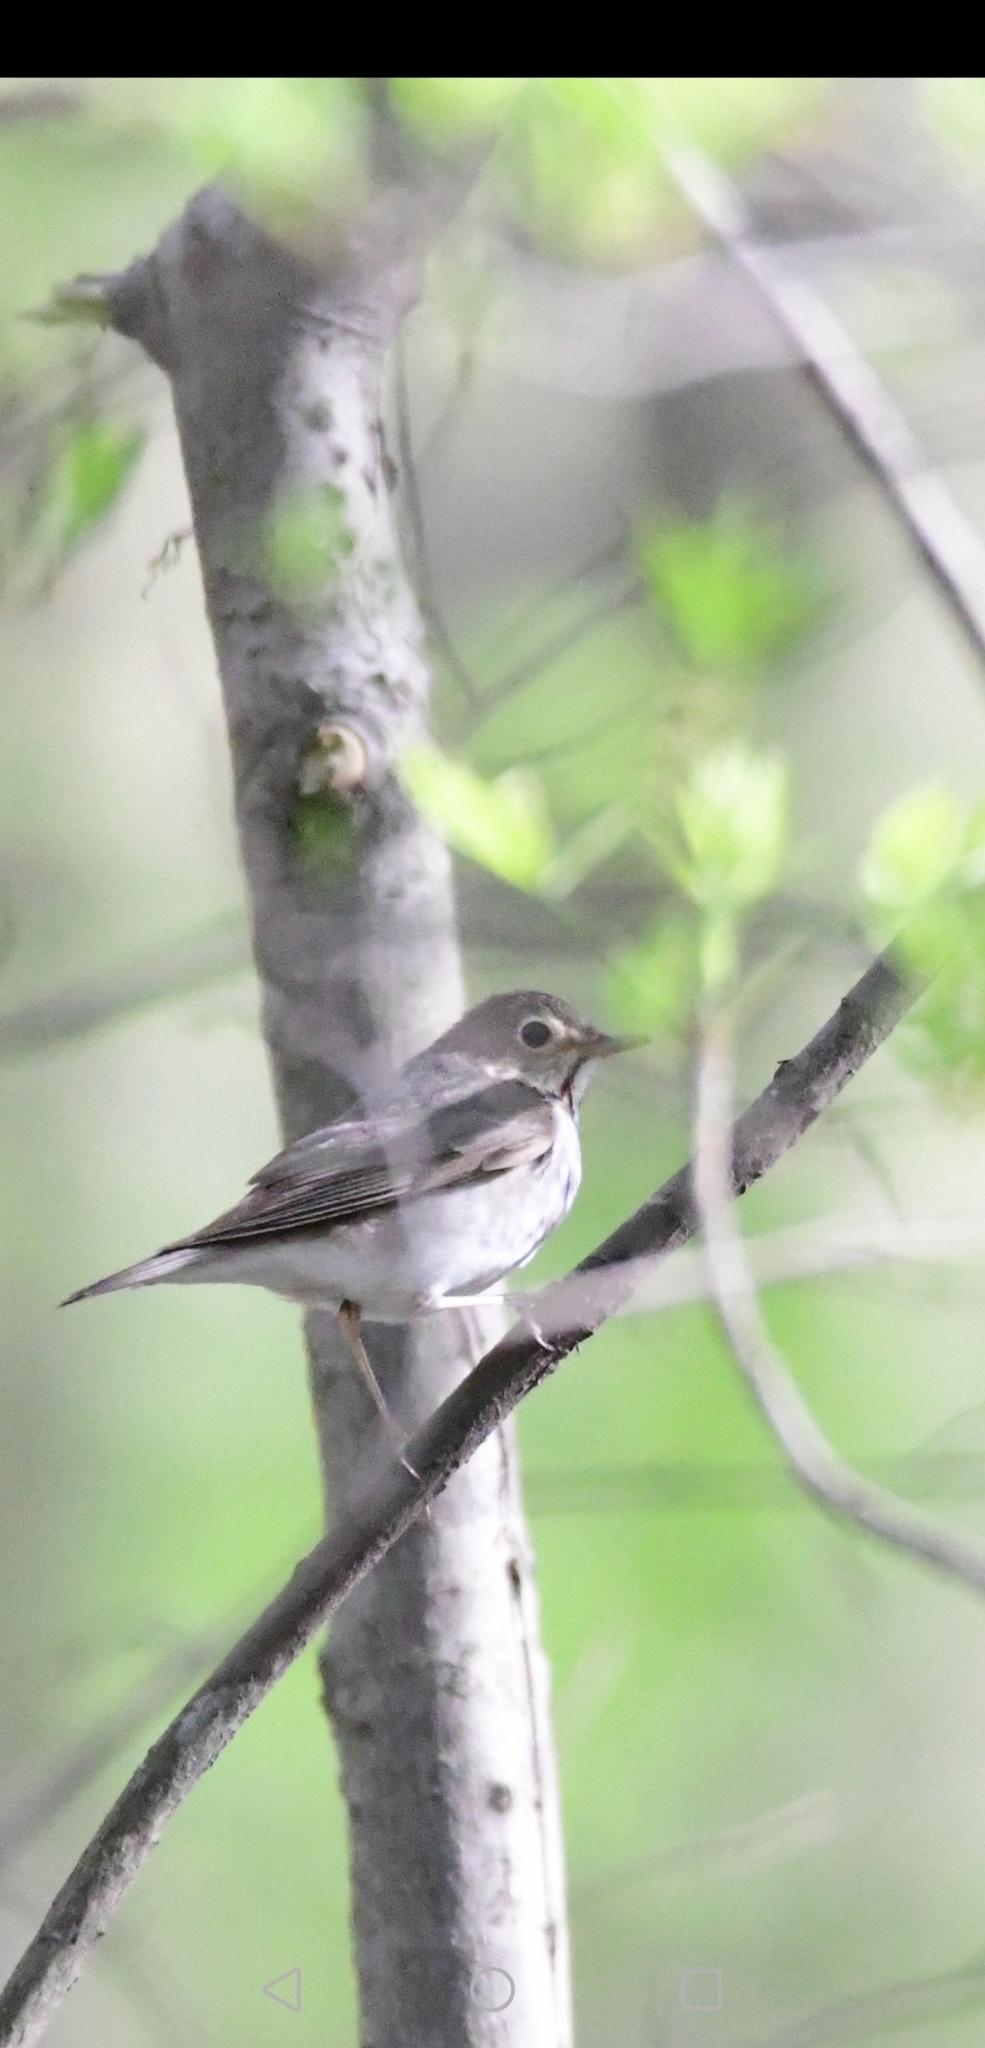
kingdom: Animalia
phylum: Chordata
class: Aves
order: Passeriformes
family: Turdidae
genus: Catharus
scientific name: Catharus ustulatus
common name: Swainson's thrush
